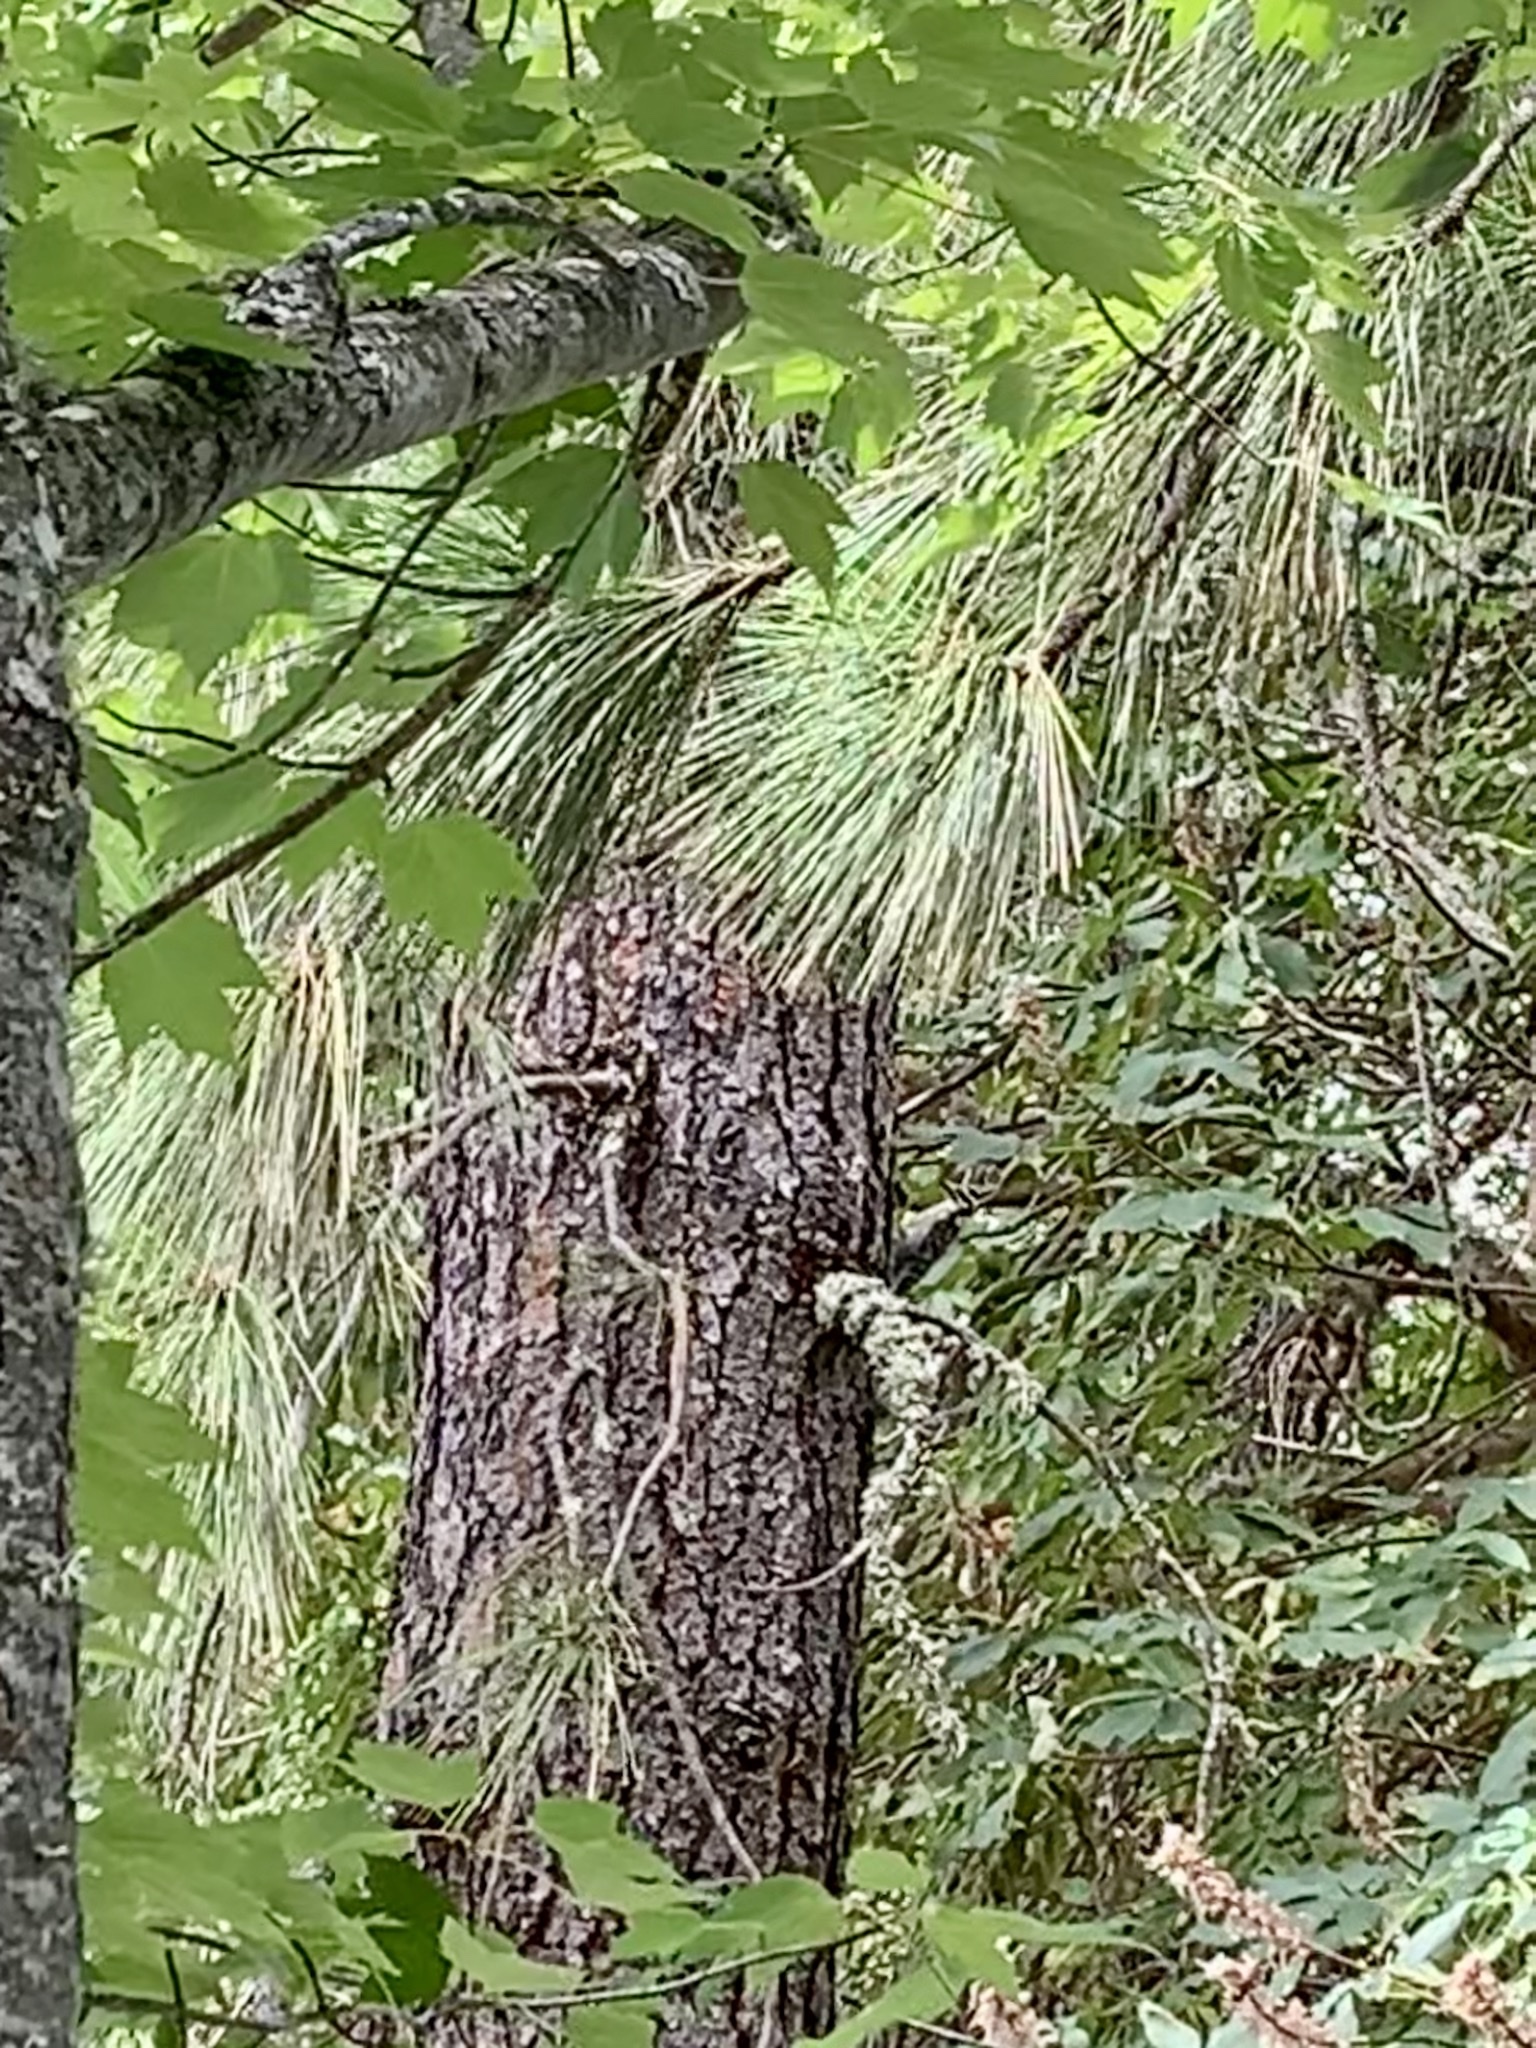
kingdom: Animalia
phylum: Chordata
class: Aves
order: Piciformes
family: Picidae
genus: Dryobates
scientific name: Dryobates nuttallii
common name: Nuttall's woodpecker
